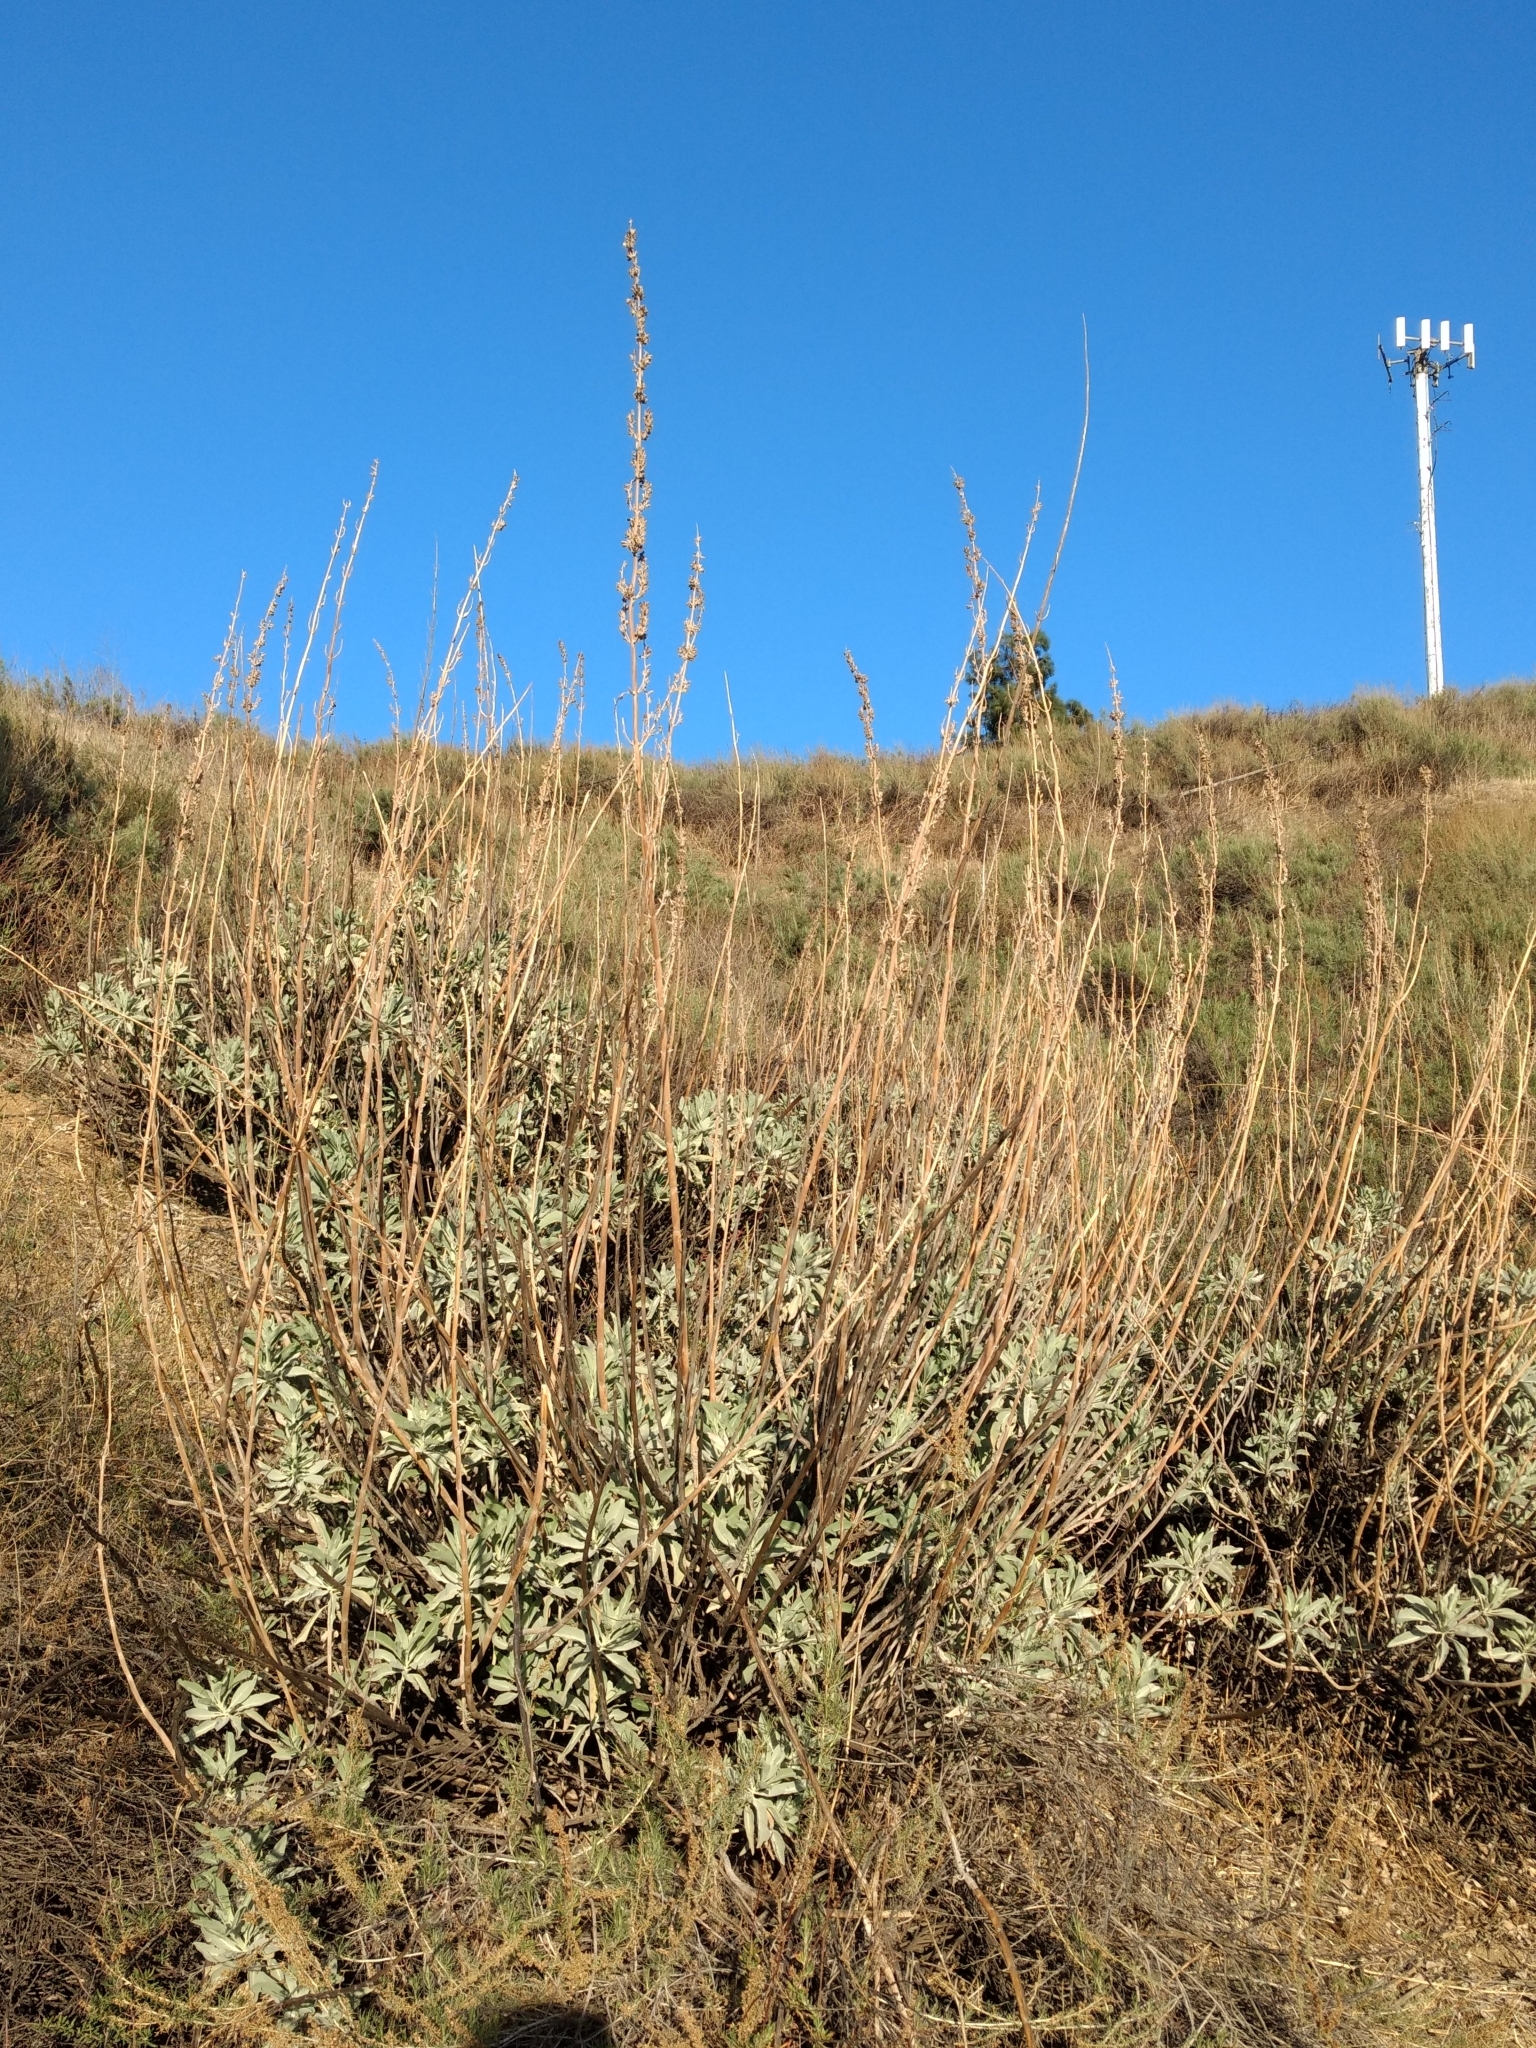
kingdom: Plantae
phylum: Tracheophyta
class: Magnoliopsida
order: Lamiales
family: Lamiaceae
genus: Salvia
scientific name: Salvia apiana
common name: White sage
